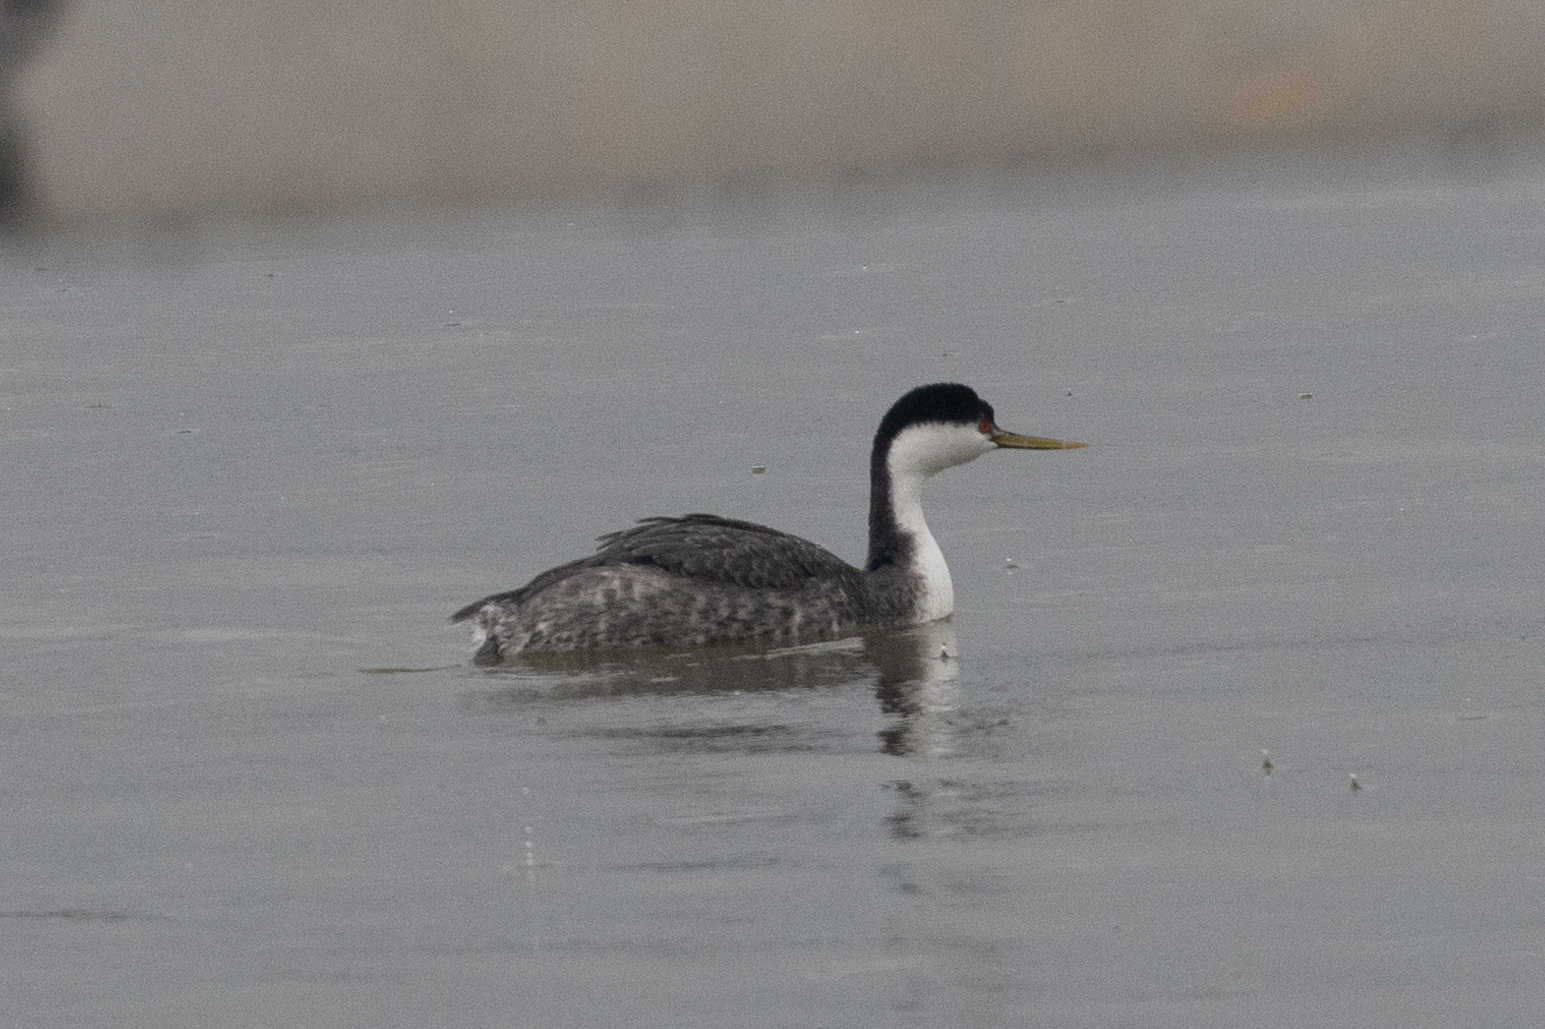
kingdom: Animalia
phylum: Chordata
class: Aves
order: Podicipediformes
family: Podicipedidae
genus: Aechmophorus
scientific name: Aechmophorus occidentalis
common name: Western grebe
